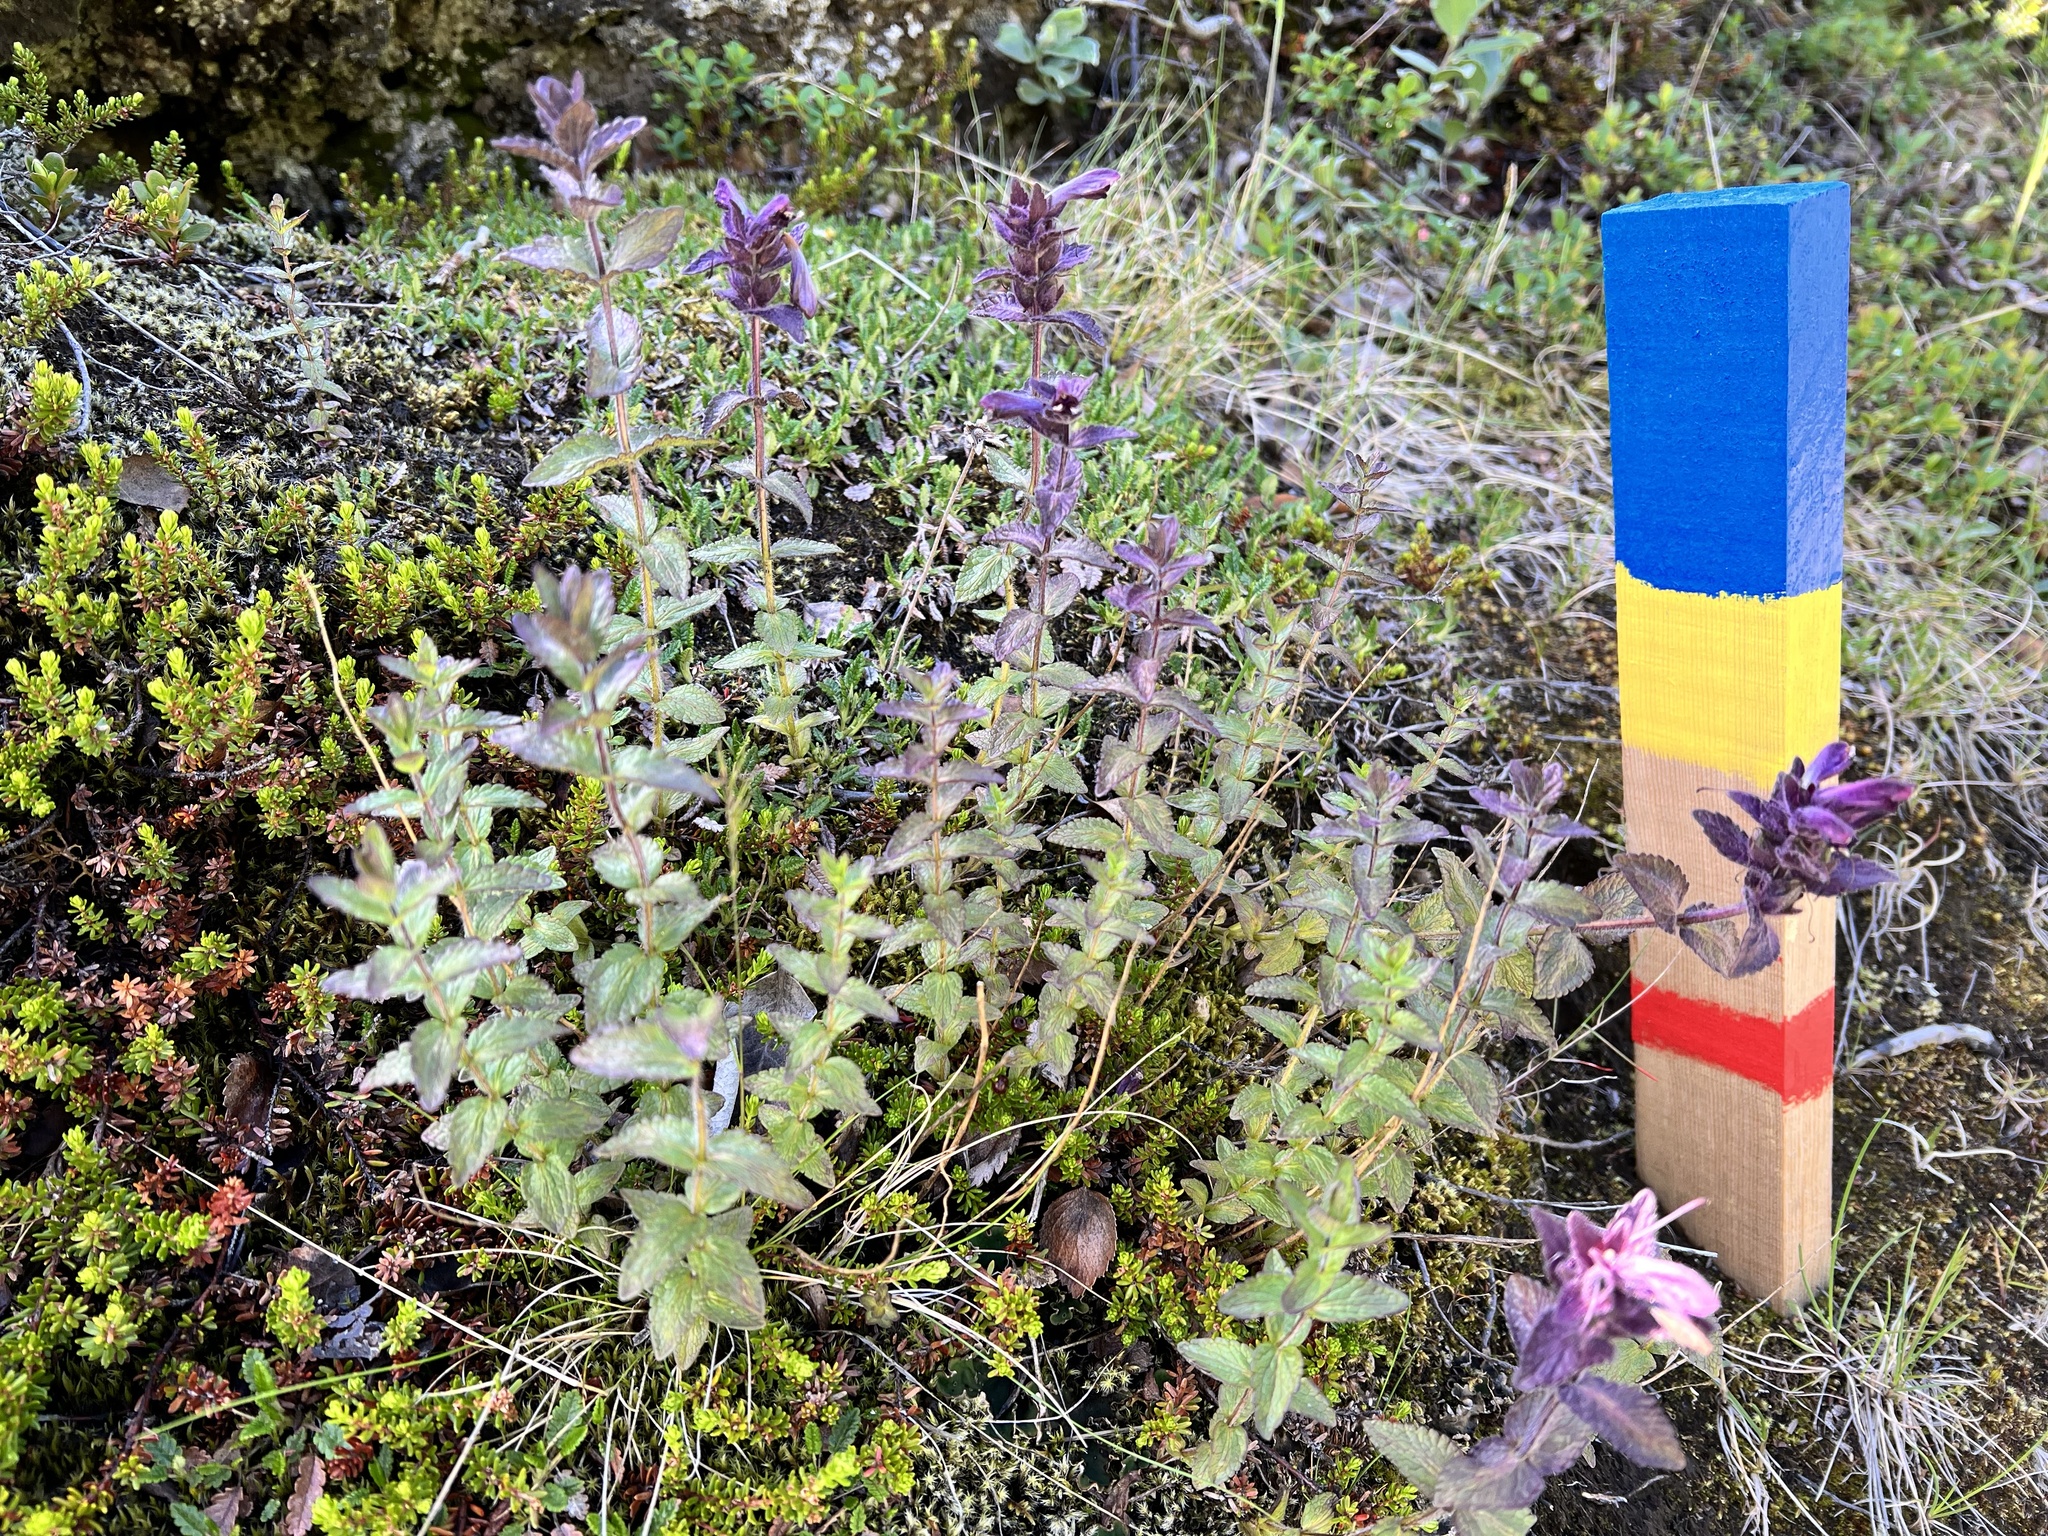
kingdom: Plantae
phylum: Tracheophyta
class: Magnoliopsida
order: Lamiales
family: Orobanchaceae
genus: Bartsia
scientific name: Bartsia alpina
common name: Alpine bartsia
